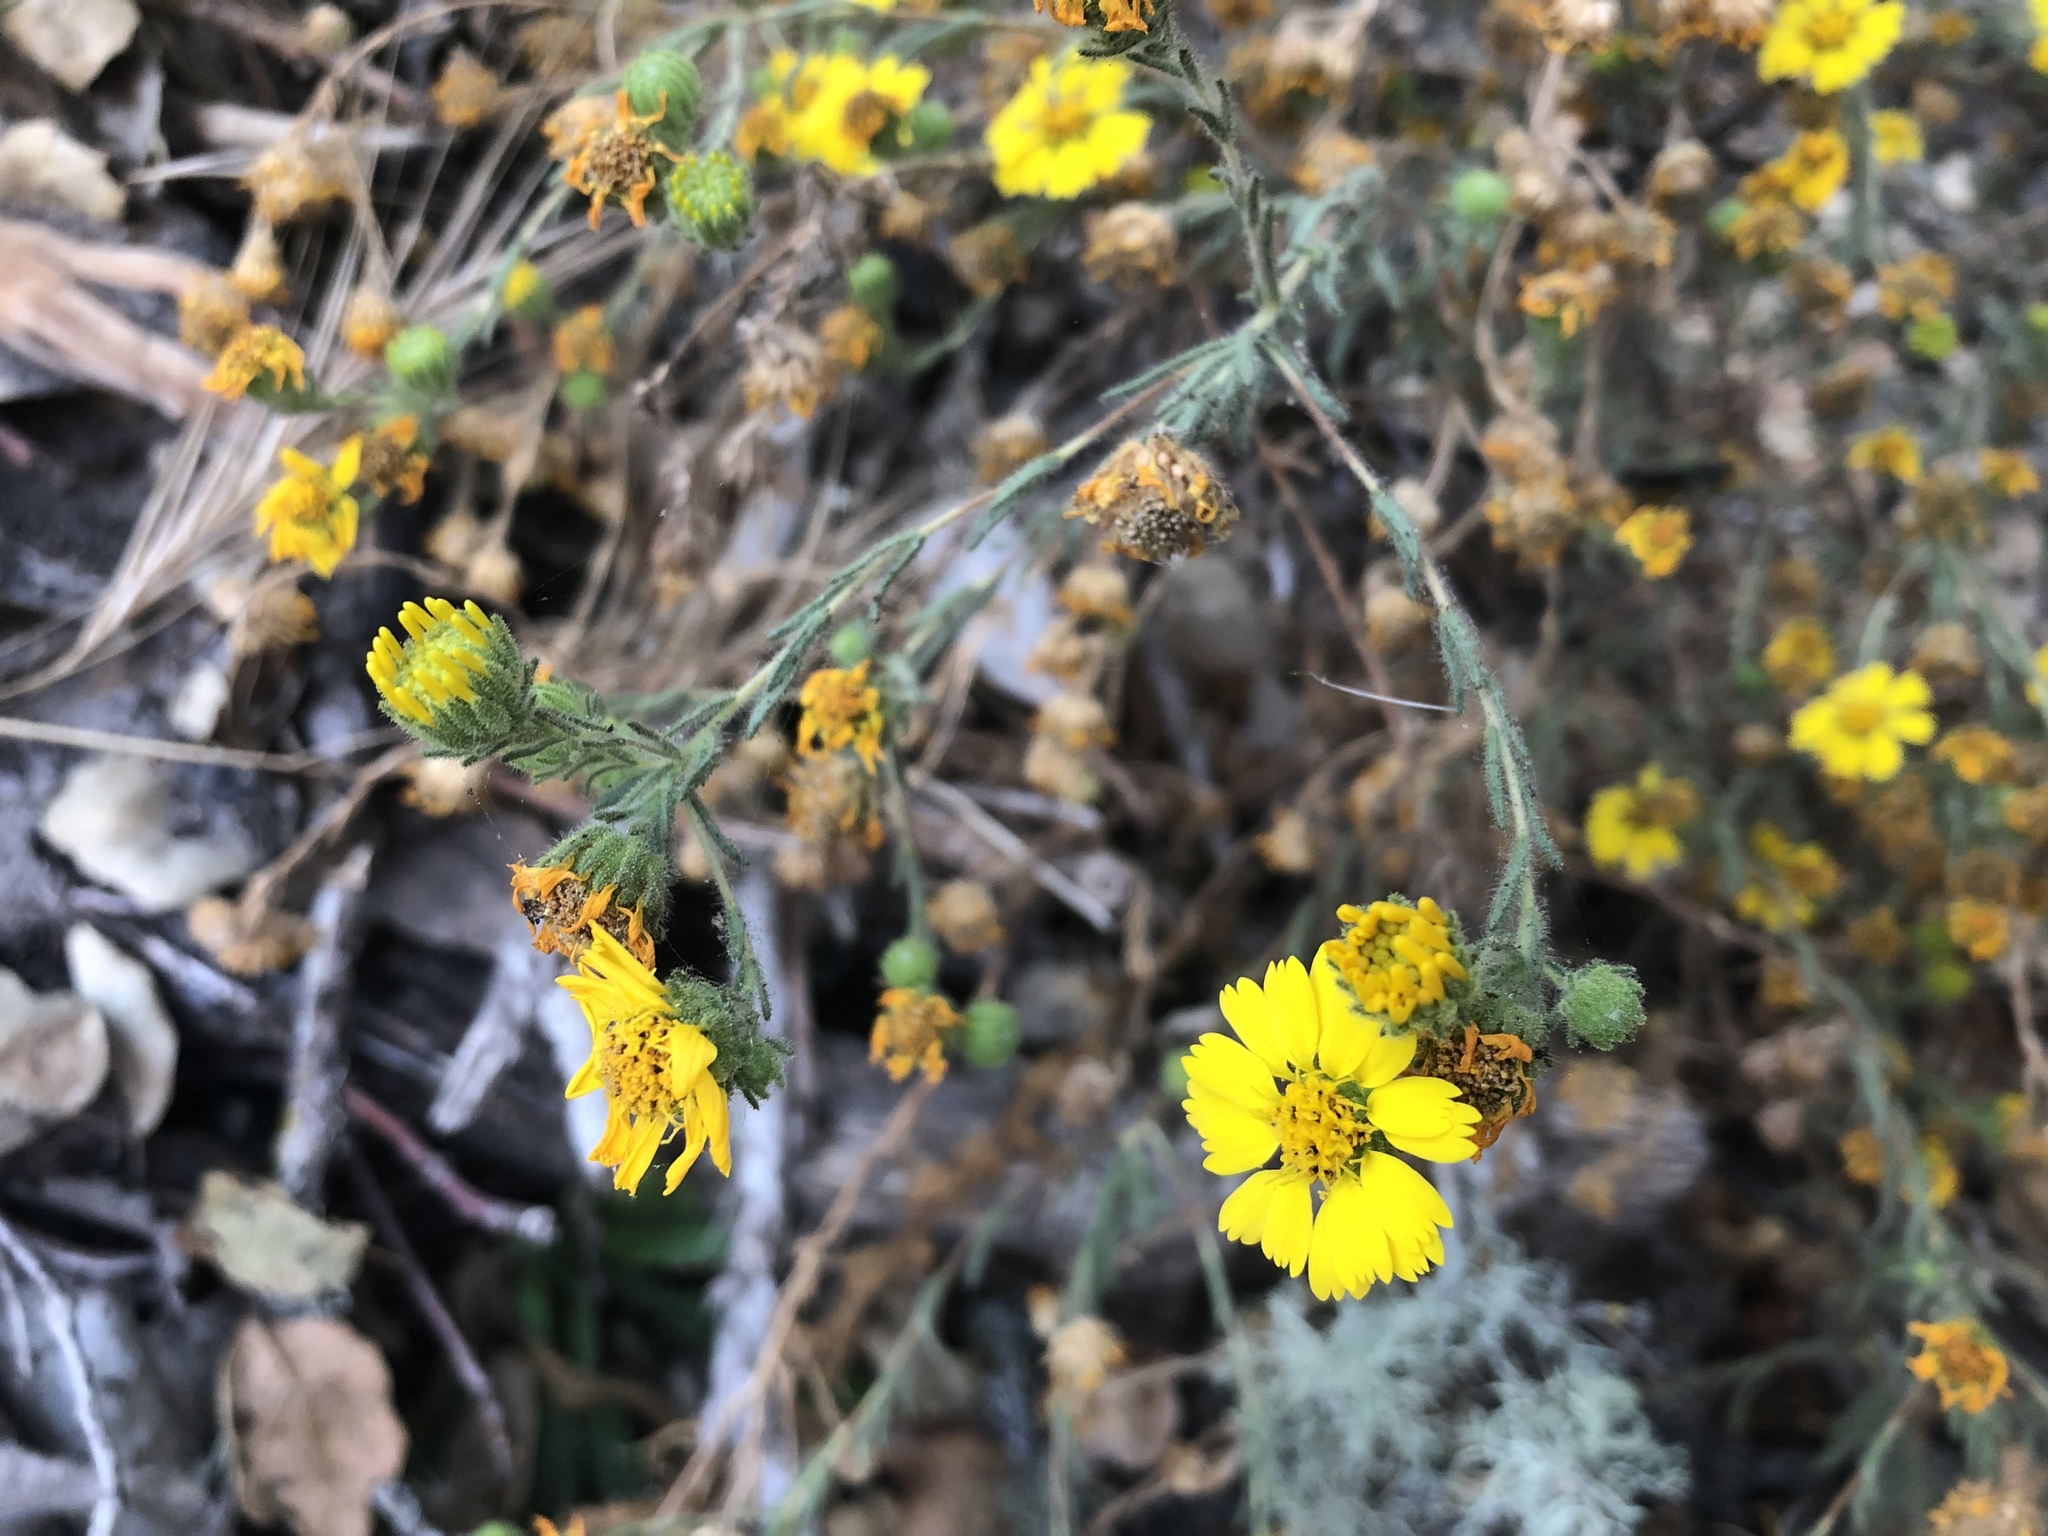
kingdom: Plantae
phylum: Tracheophyta
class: Magnoliopsida
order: Asterales
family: Asteraceae
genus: Deinandra
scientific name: Deinandra corymbosa
